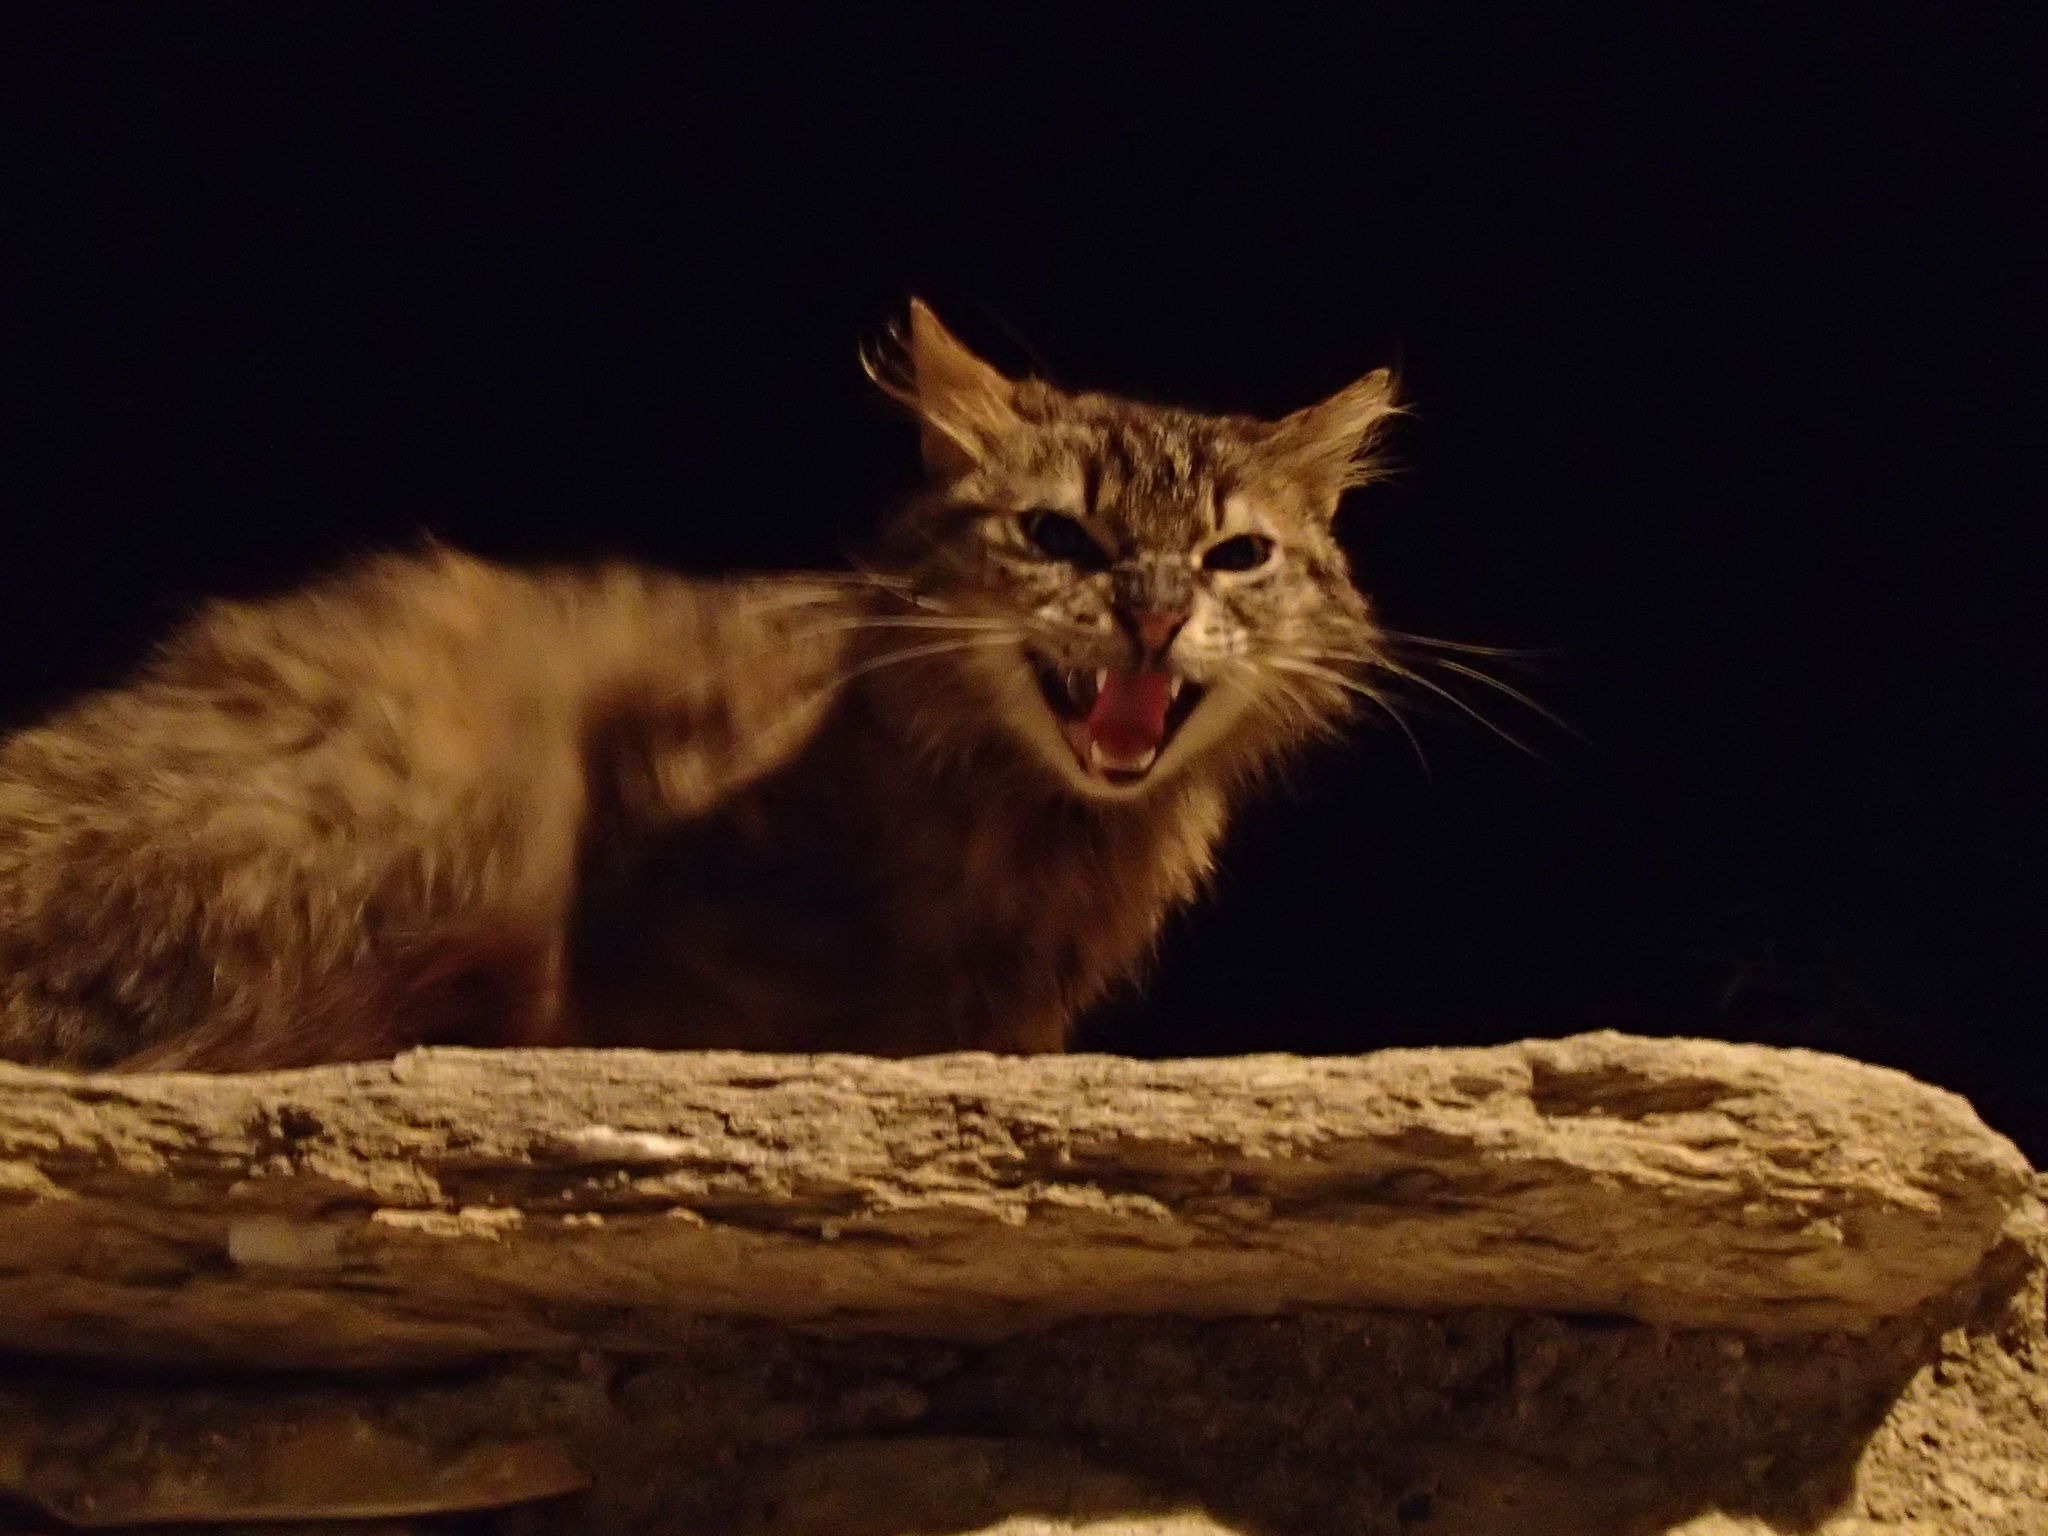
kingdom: Animalia
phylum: Chordata
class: Mammalia
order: Carnivora
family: Felidae
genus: Felis
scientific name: Felis catus
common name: Domestic cat
